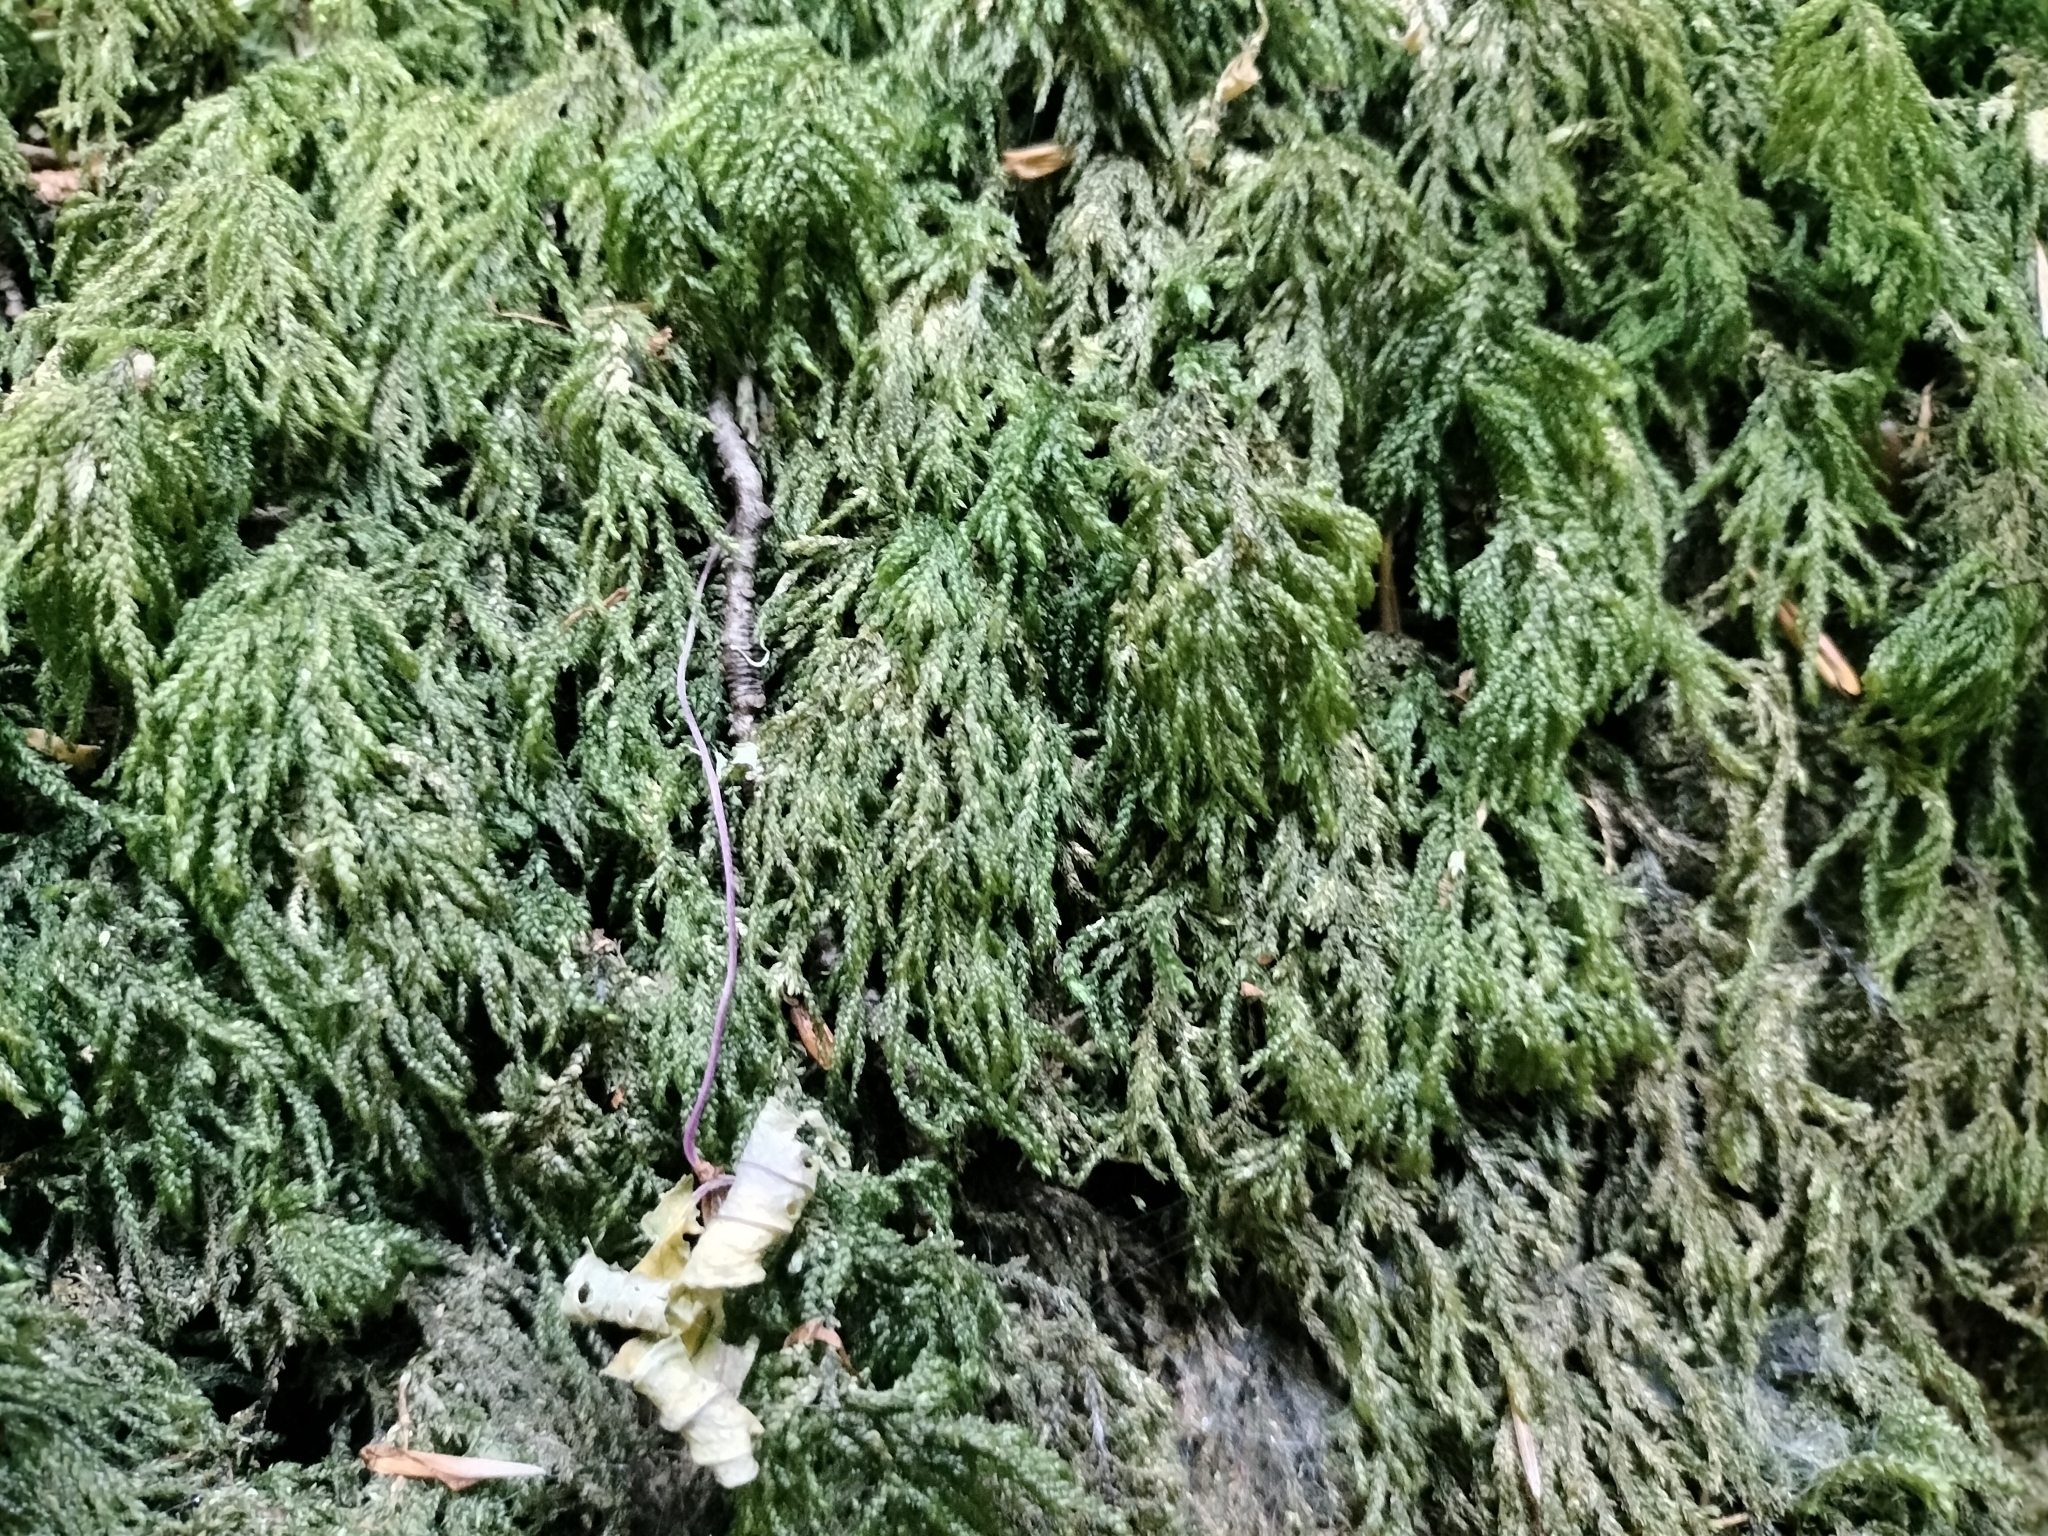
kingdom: Plantae
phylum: Bryophyta
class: Bryopsida
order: Hypnales
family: Neckeraceae
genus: Thamnobryum
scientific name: Thamnobryum alopecurum
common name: Fox-tail feather-moss
